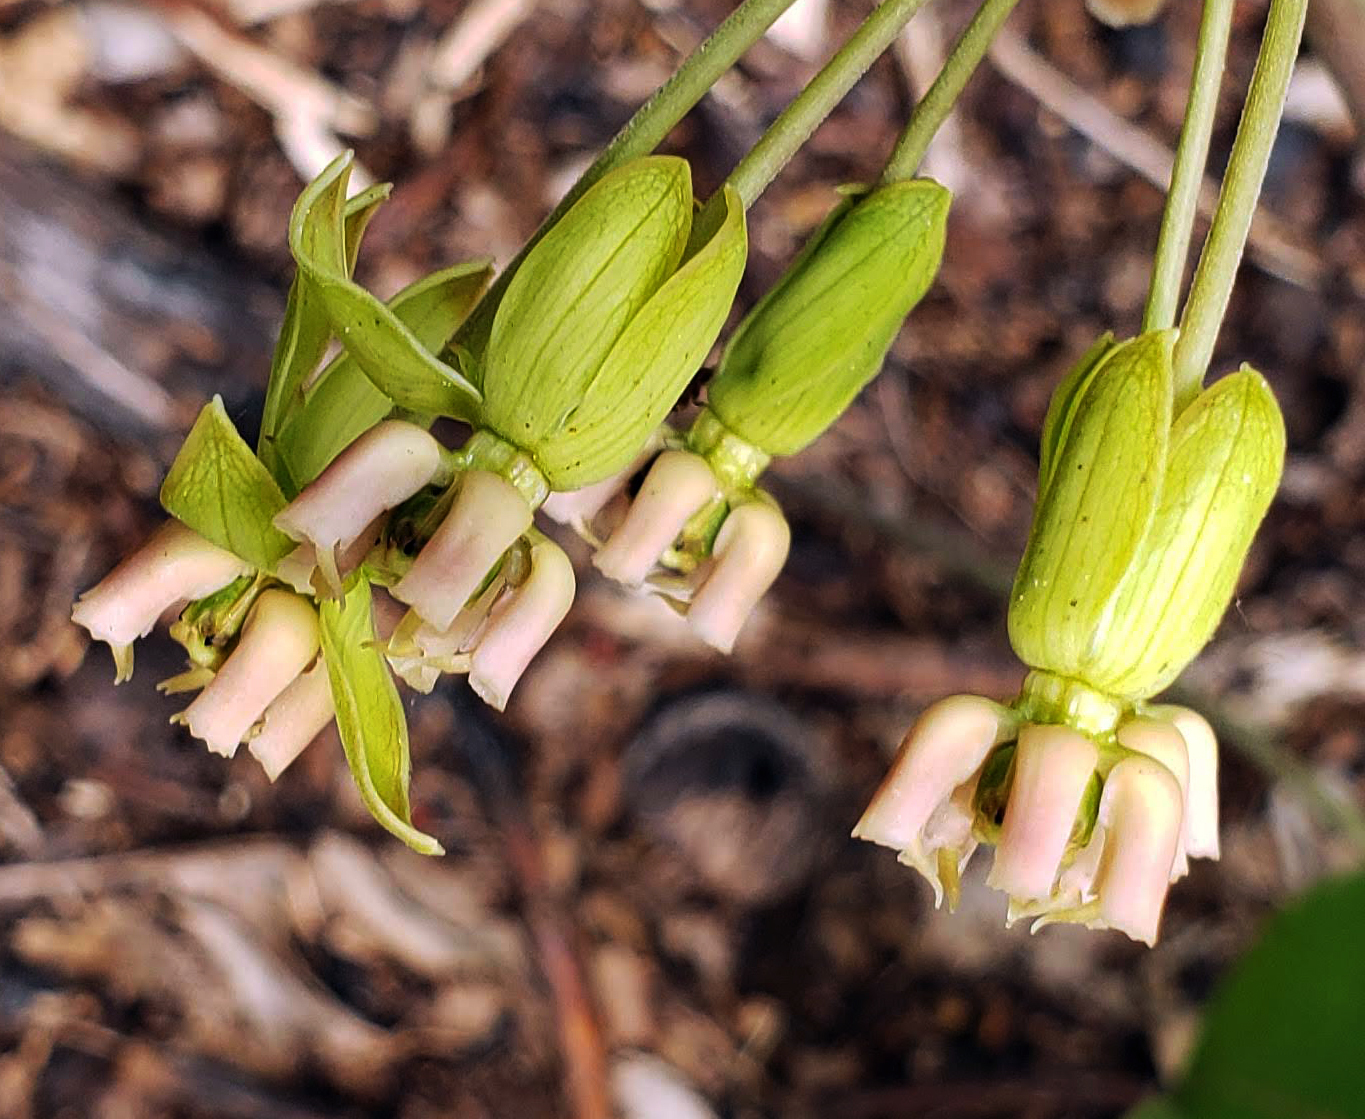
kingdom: Plantae
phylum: Tracheophyta
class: Magnoliopsida
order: Gentianales
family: Apocynaceae
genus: Asclepias
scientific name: Asclepias amplexicaulis
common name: Blunt-leaf milkweed
